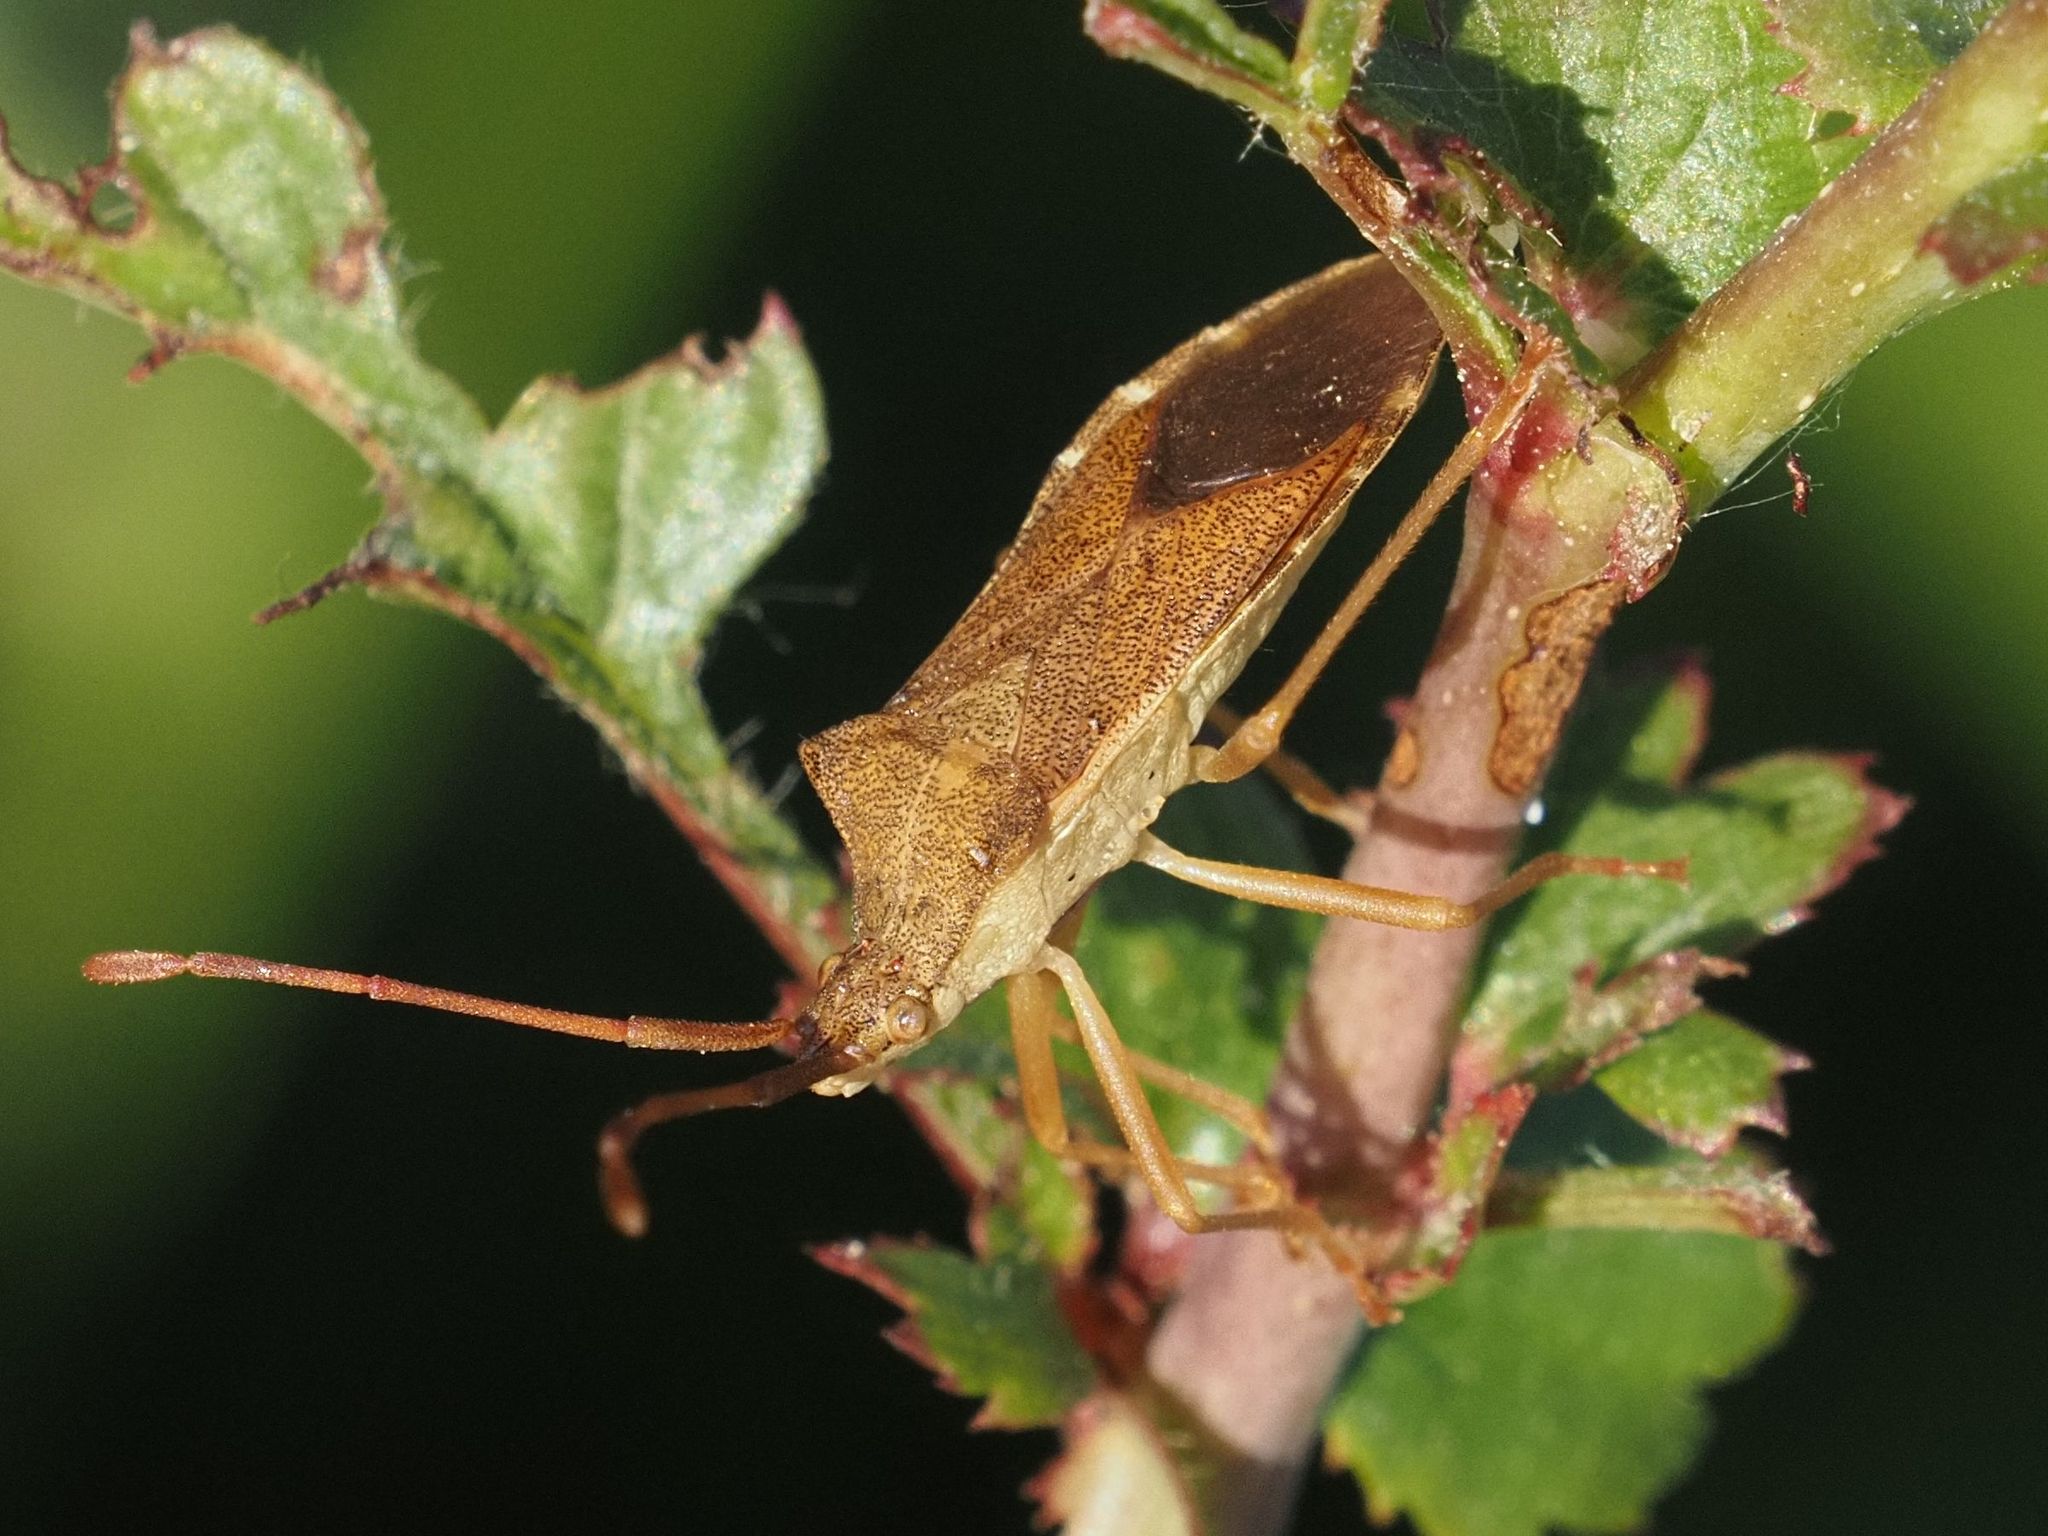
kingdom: Animalia
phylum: Arthropoda
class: Insecta
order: Hemiptera
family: Coreidae
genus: Gonocerus
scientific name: Gonocerus acuteangulatus
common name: Box bug
